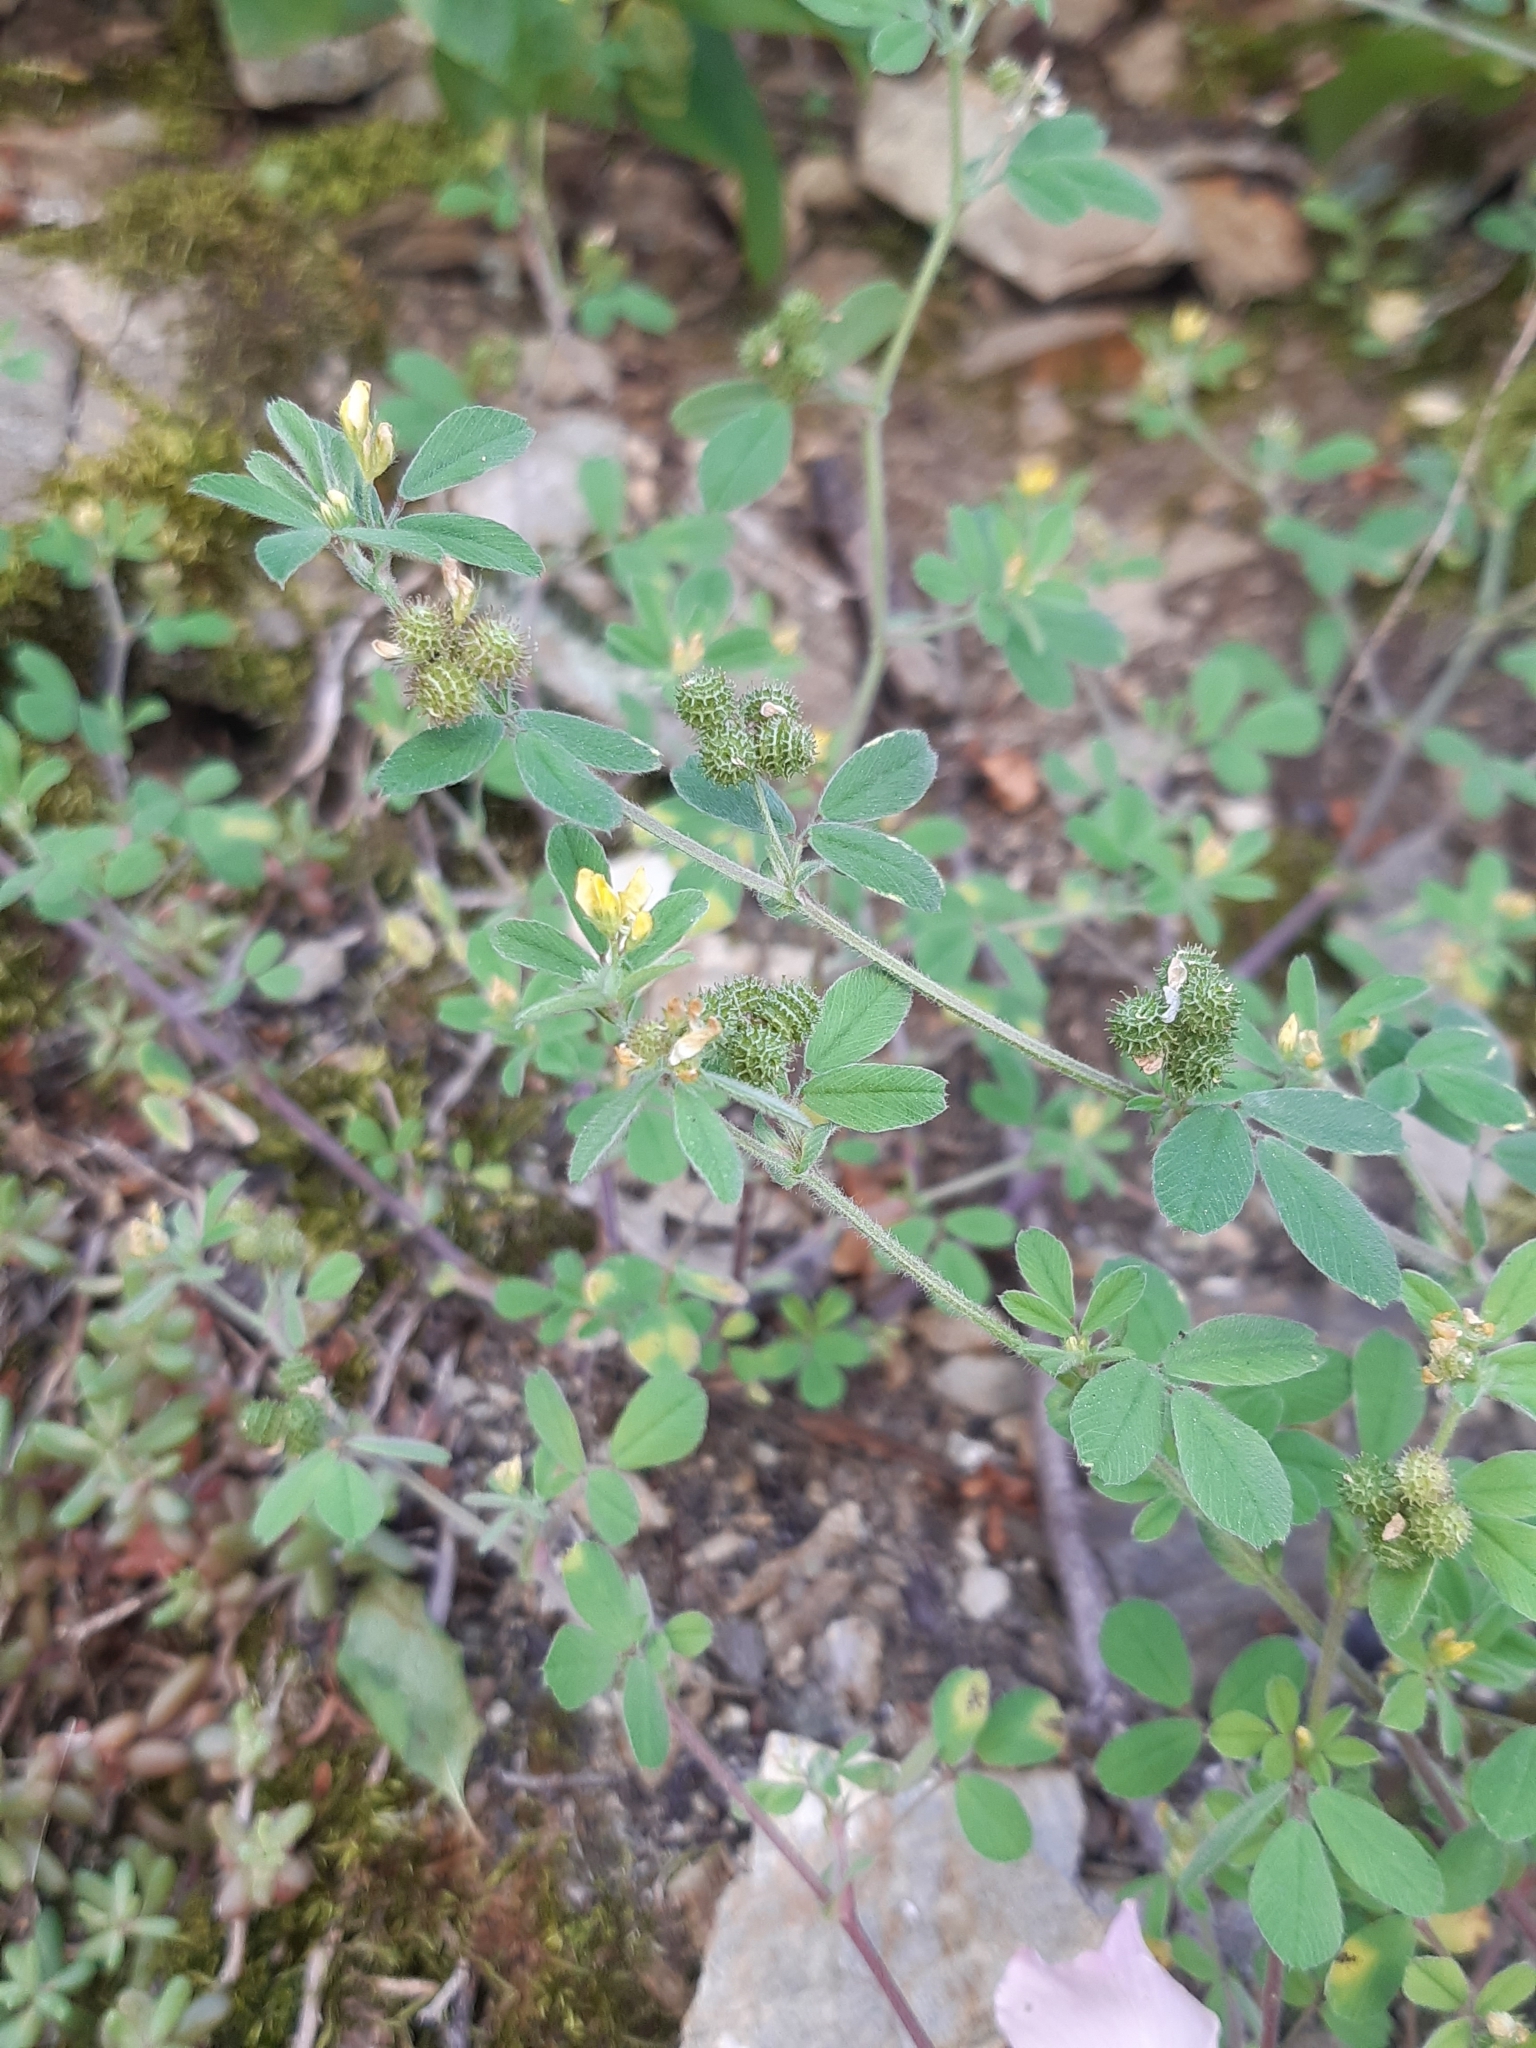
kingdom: Plantae
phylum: Tracheophyta
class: Magnoliopsida
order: Fabales
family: Fabaceae
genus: Medicago
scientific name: Medicago minima
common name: Little bur-clover
